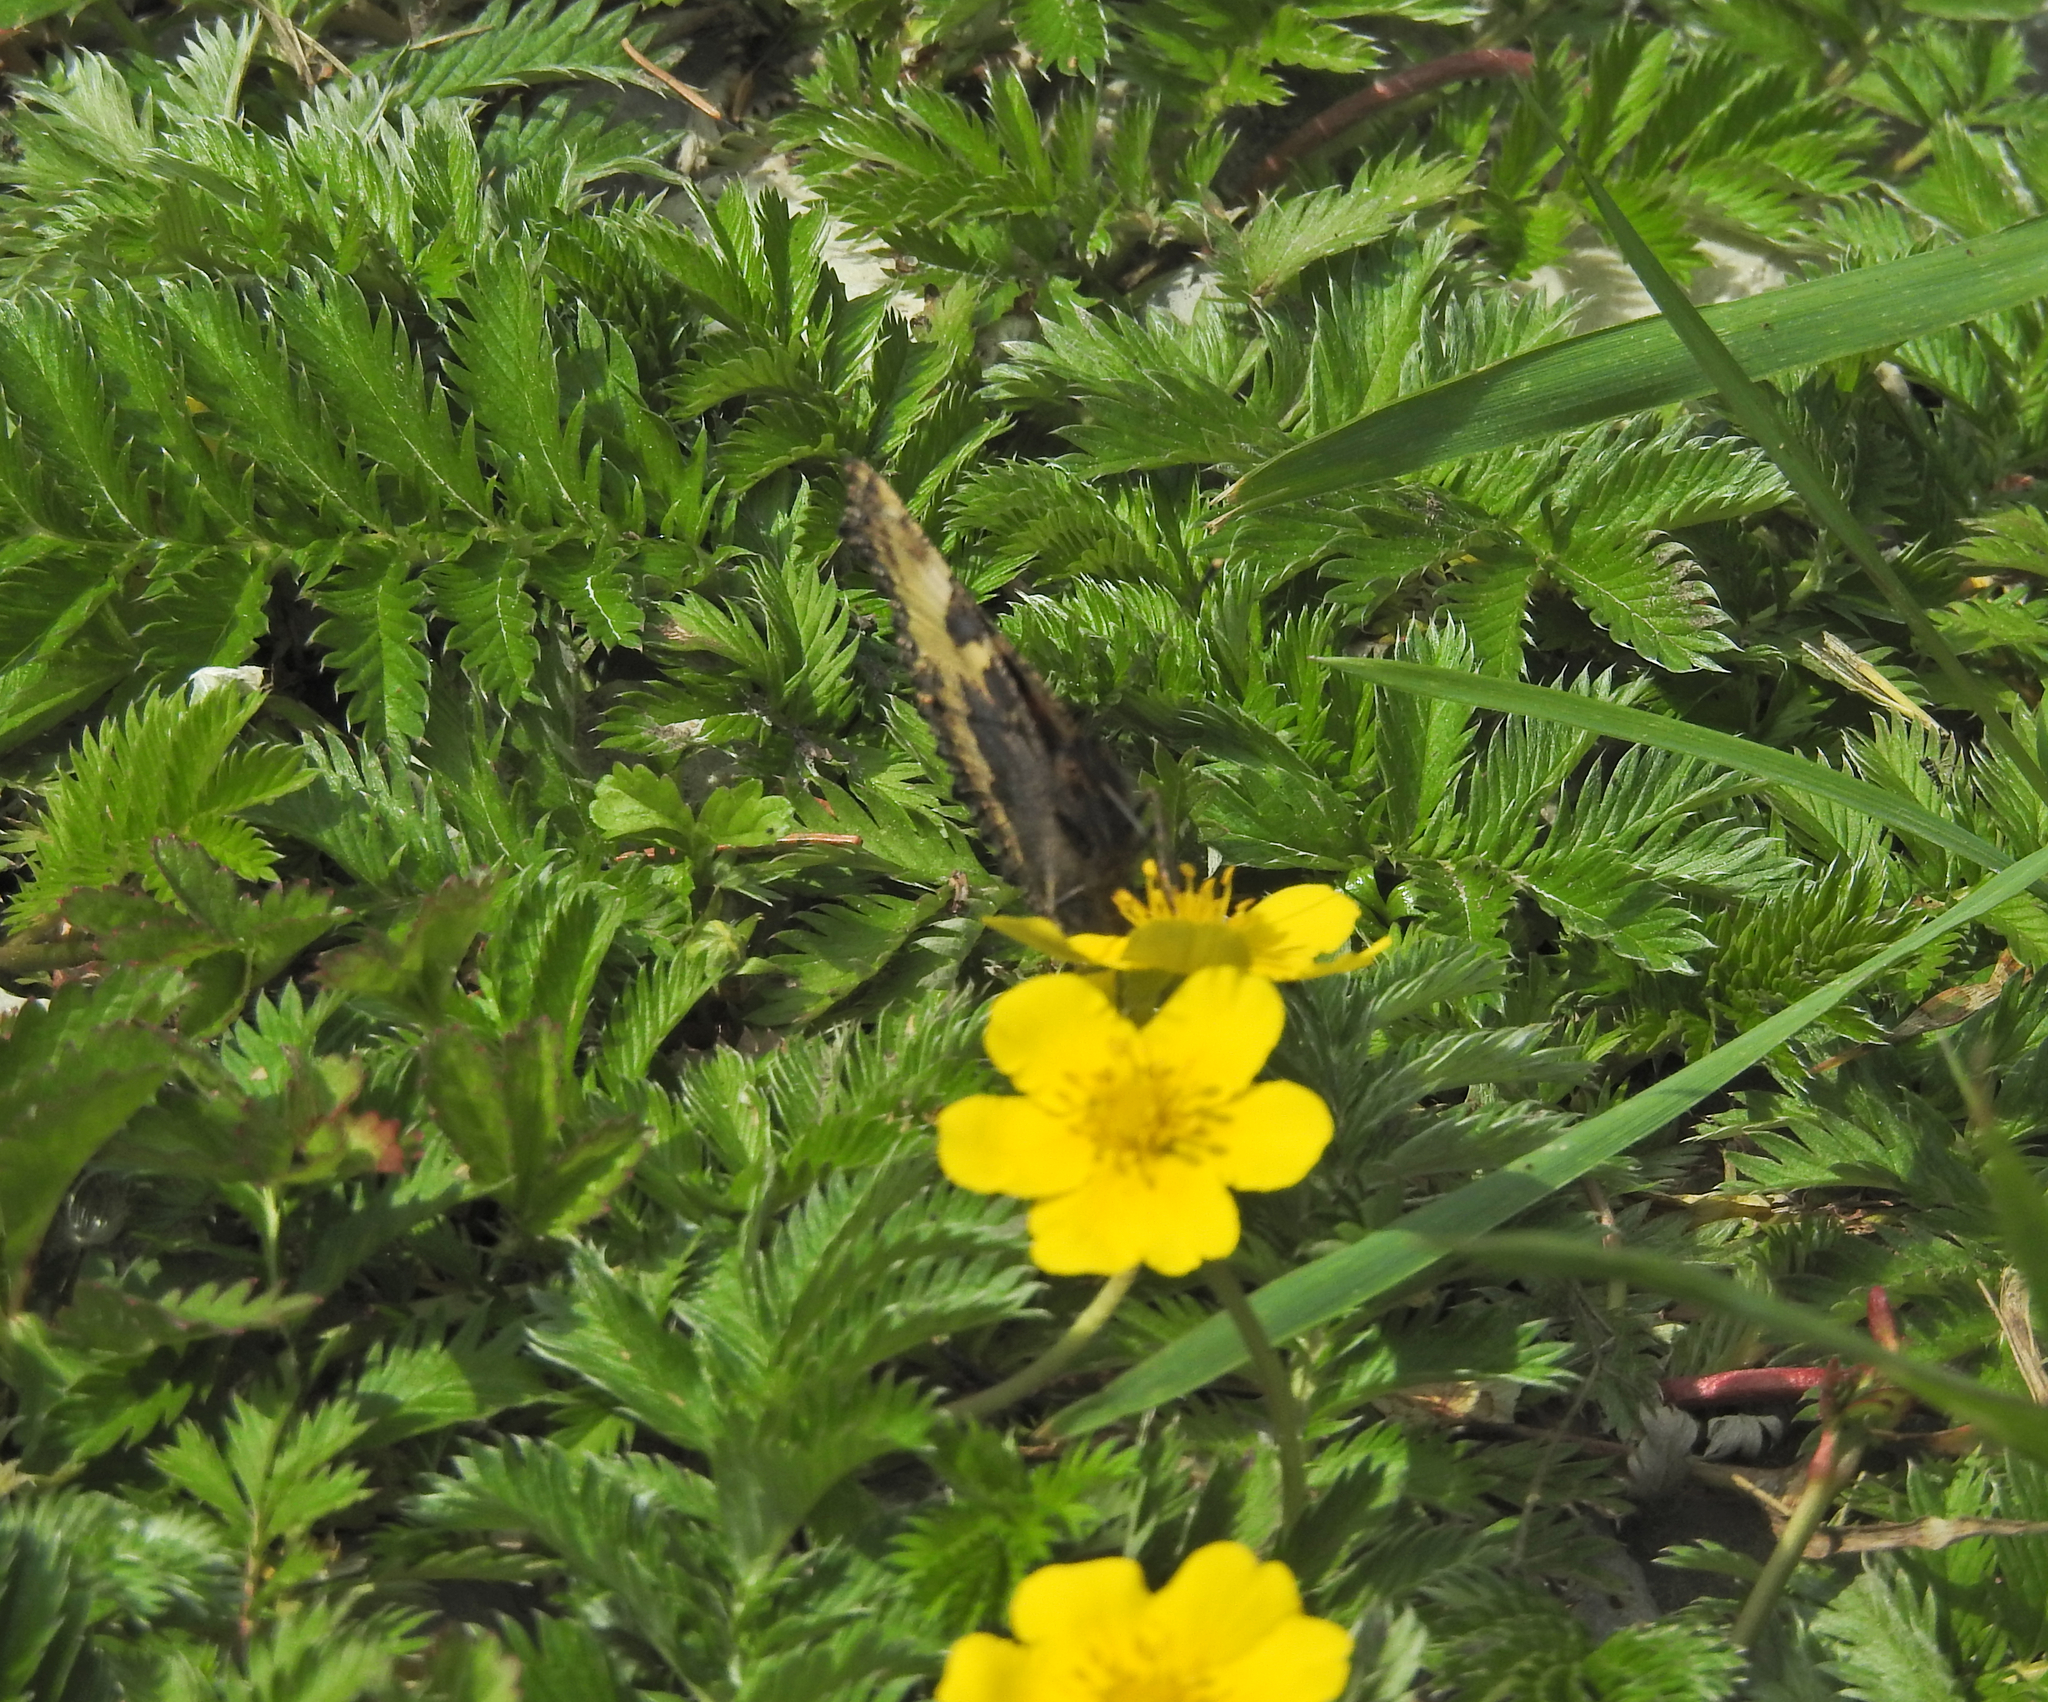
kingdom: Plantae
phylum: Tracheophyta
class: Magnoliopsida
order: Rosales
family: Rosaceae
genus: Argentina
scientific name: Argentina anserina
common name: Common silverweed
